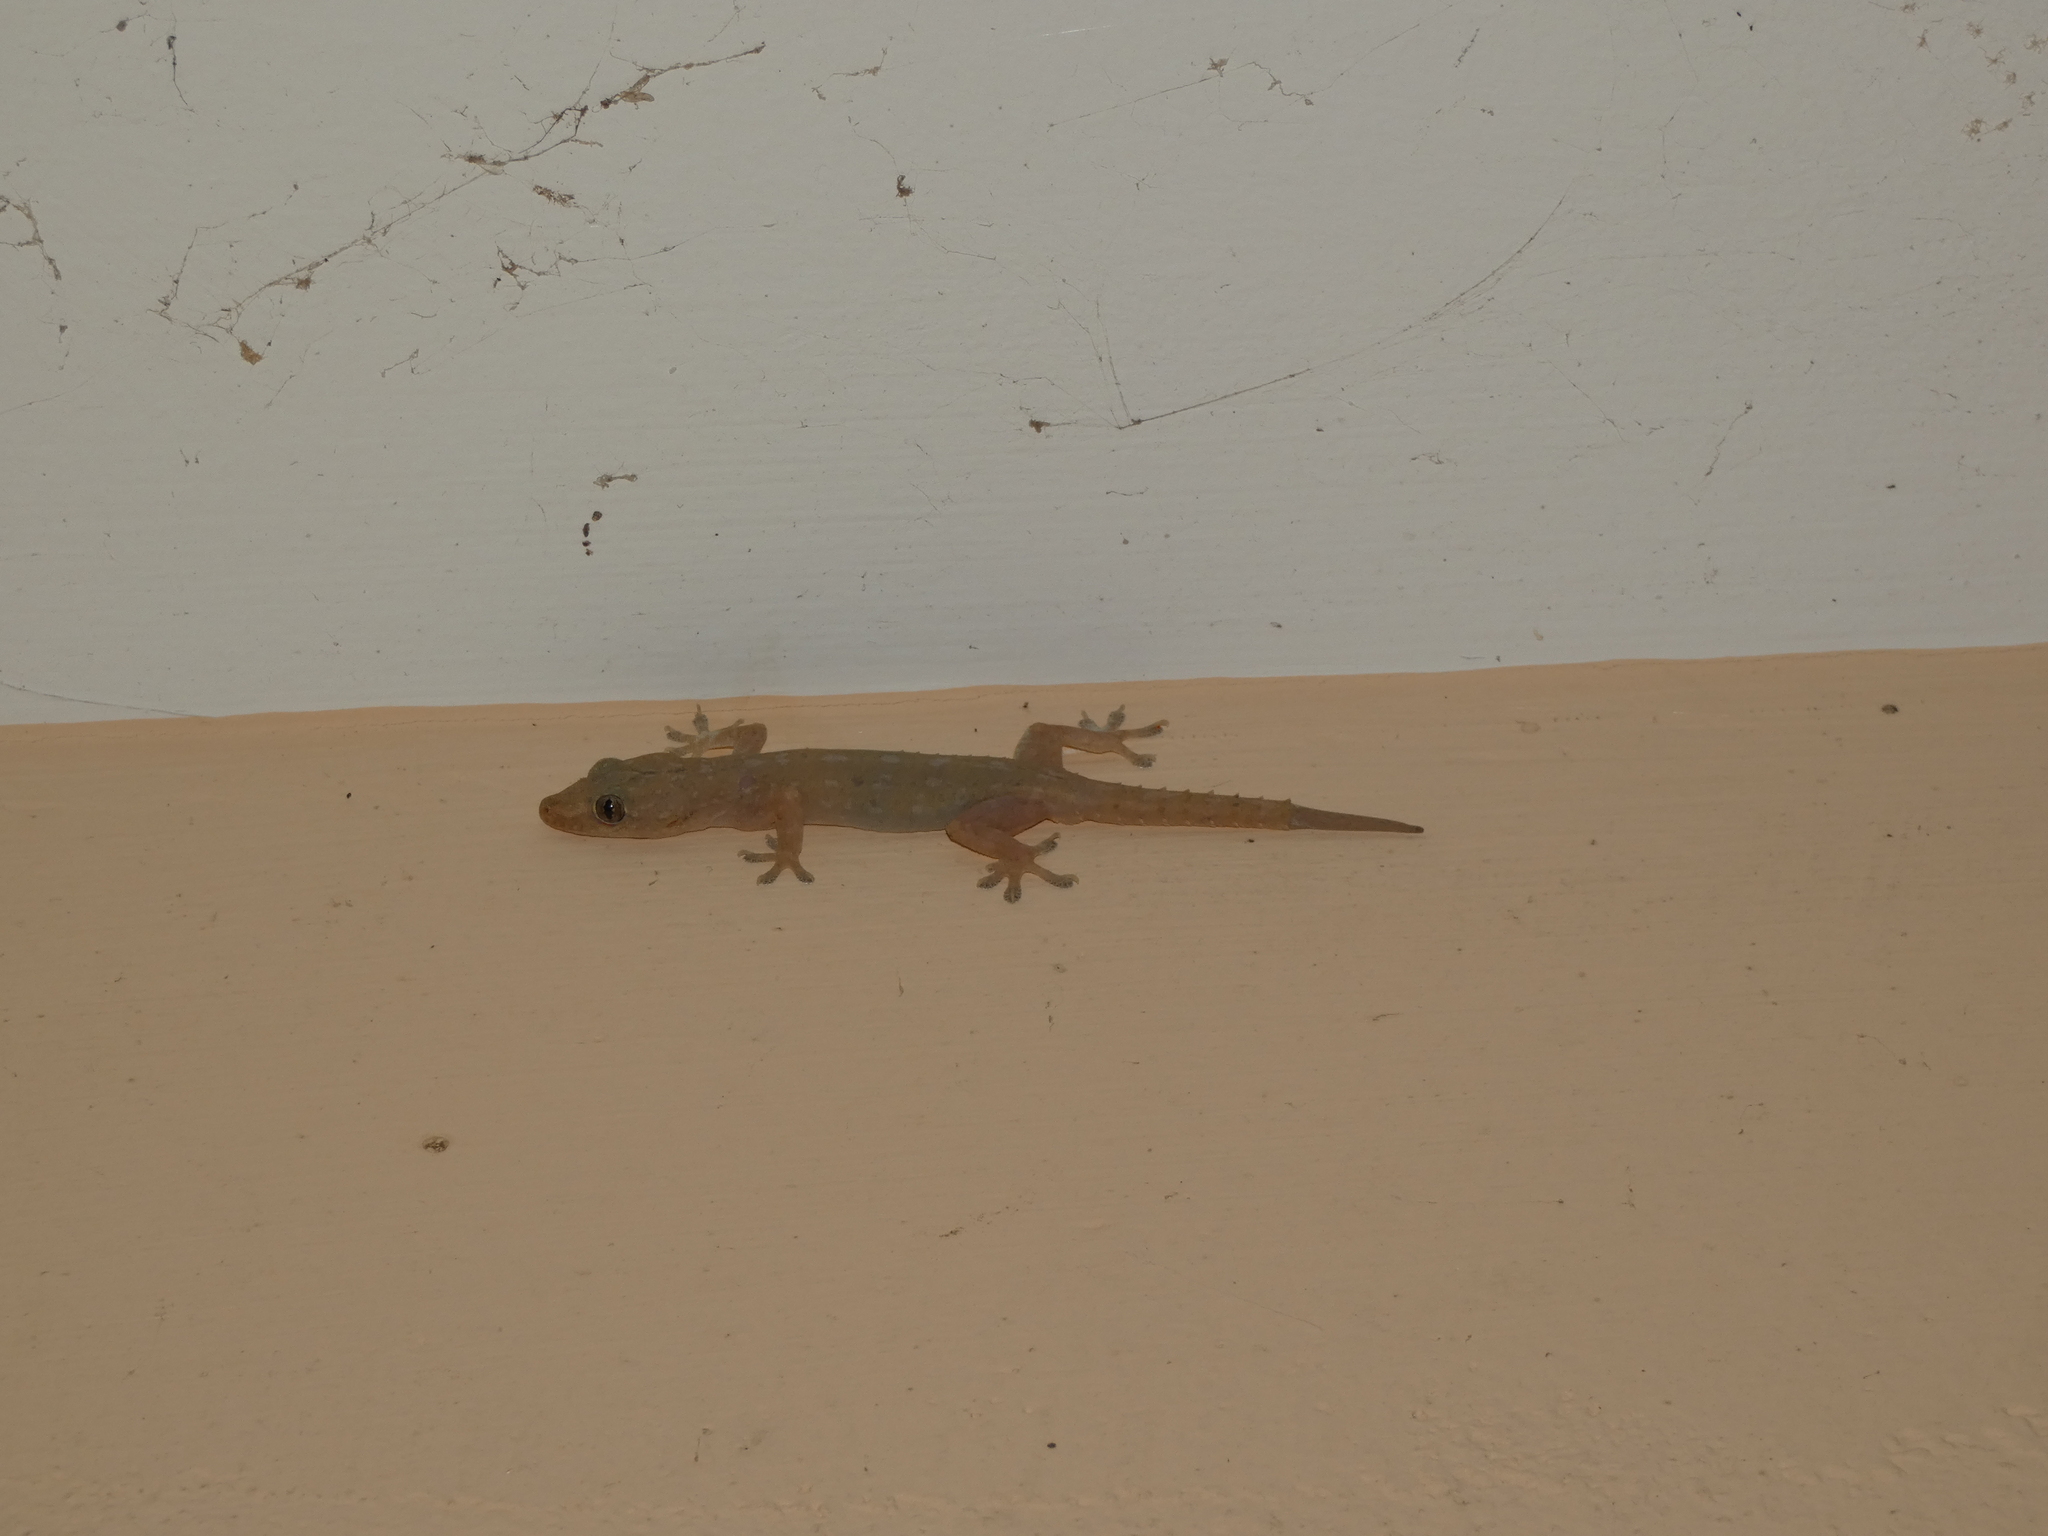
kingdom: Animalia
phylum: Chordata
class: Squamata
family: Gekkonidae
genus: Hemidactylus
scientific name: Hemidactylus frenatus
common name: Common house gecko
